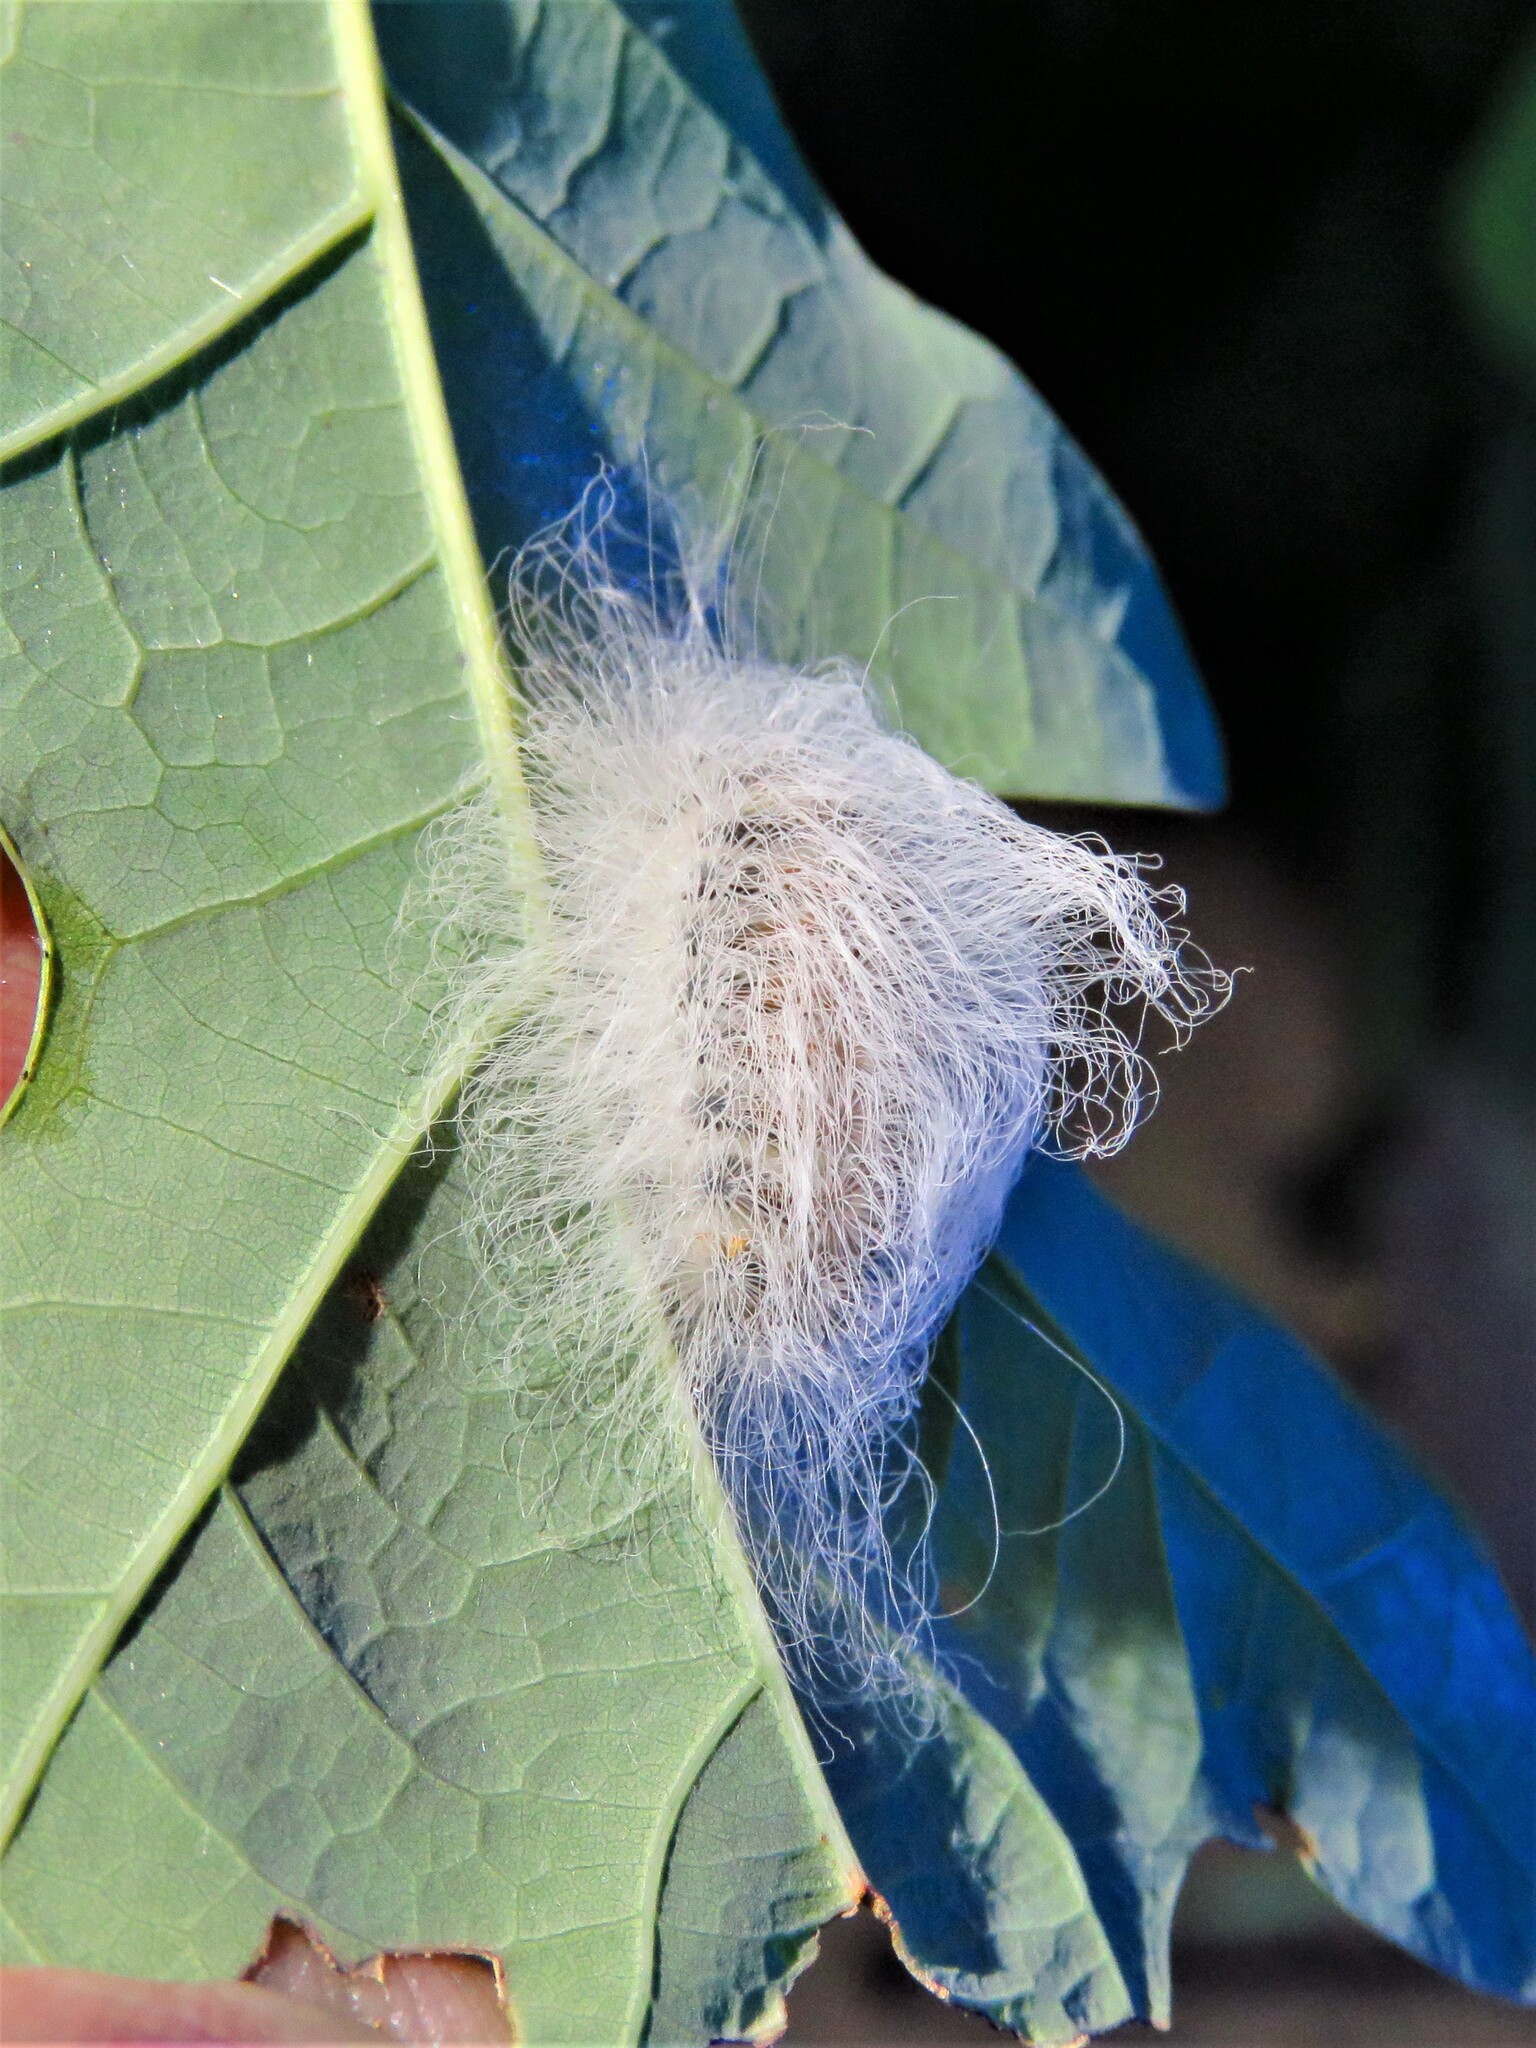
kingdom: Animalia
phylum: Arthropoda
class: Insecta
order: Lepidoptera
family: Megalopygidae
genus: Megalopyge
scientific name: Megalopyge crispata
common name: Black-waved flannel moth
